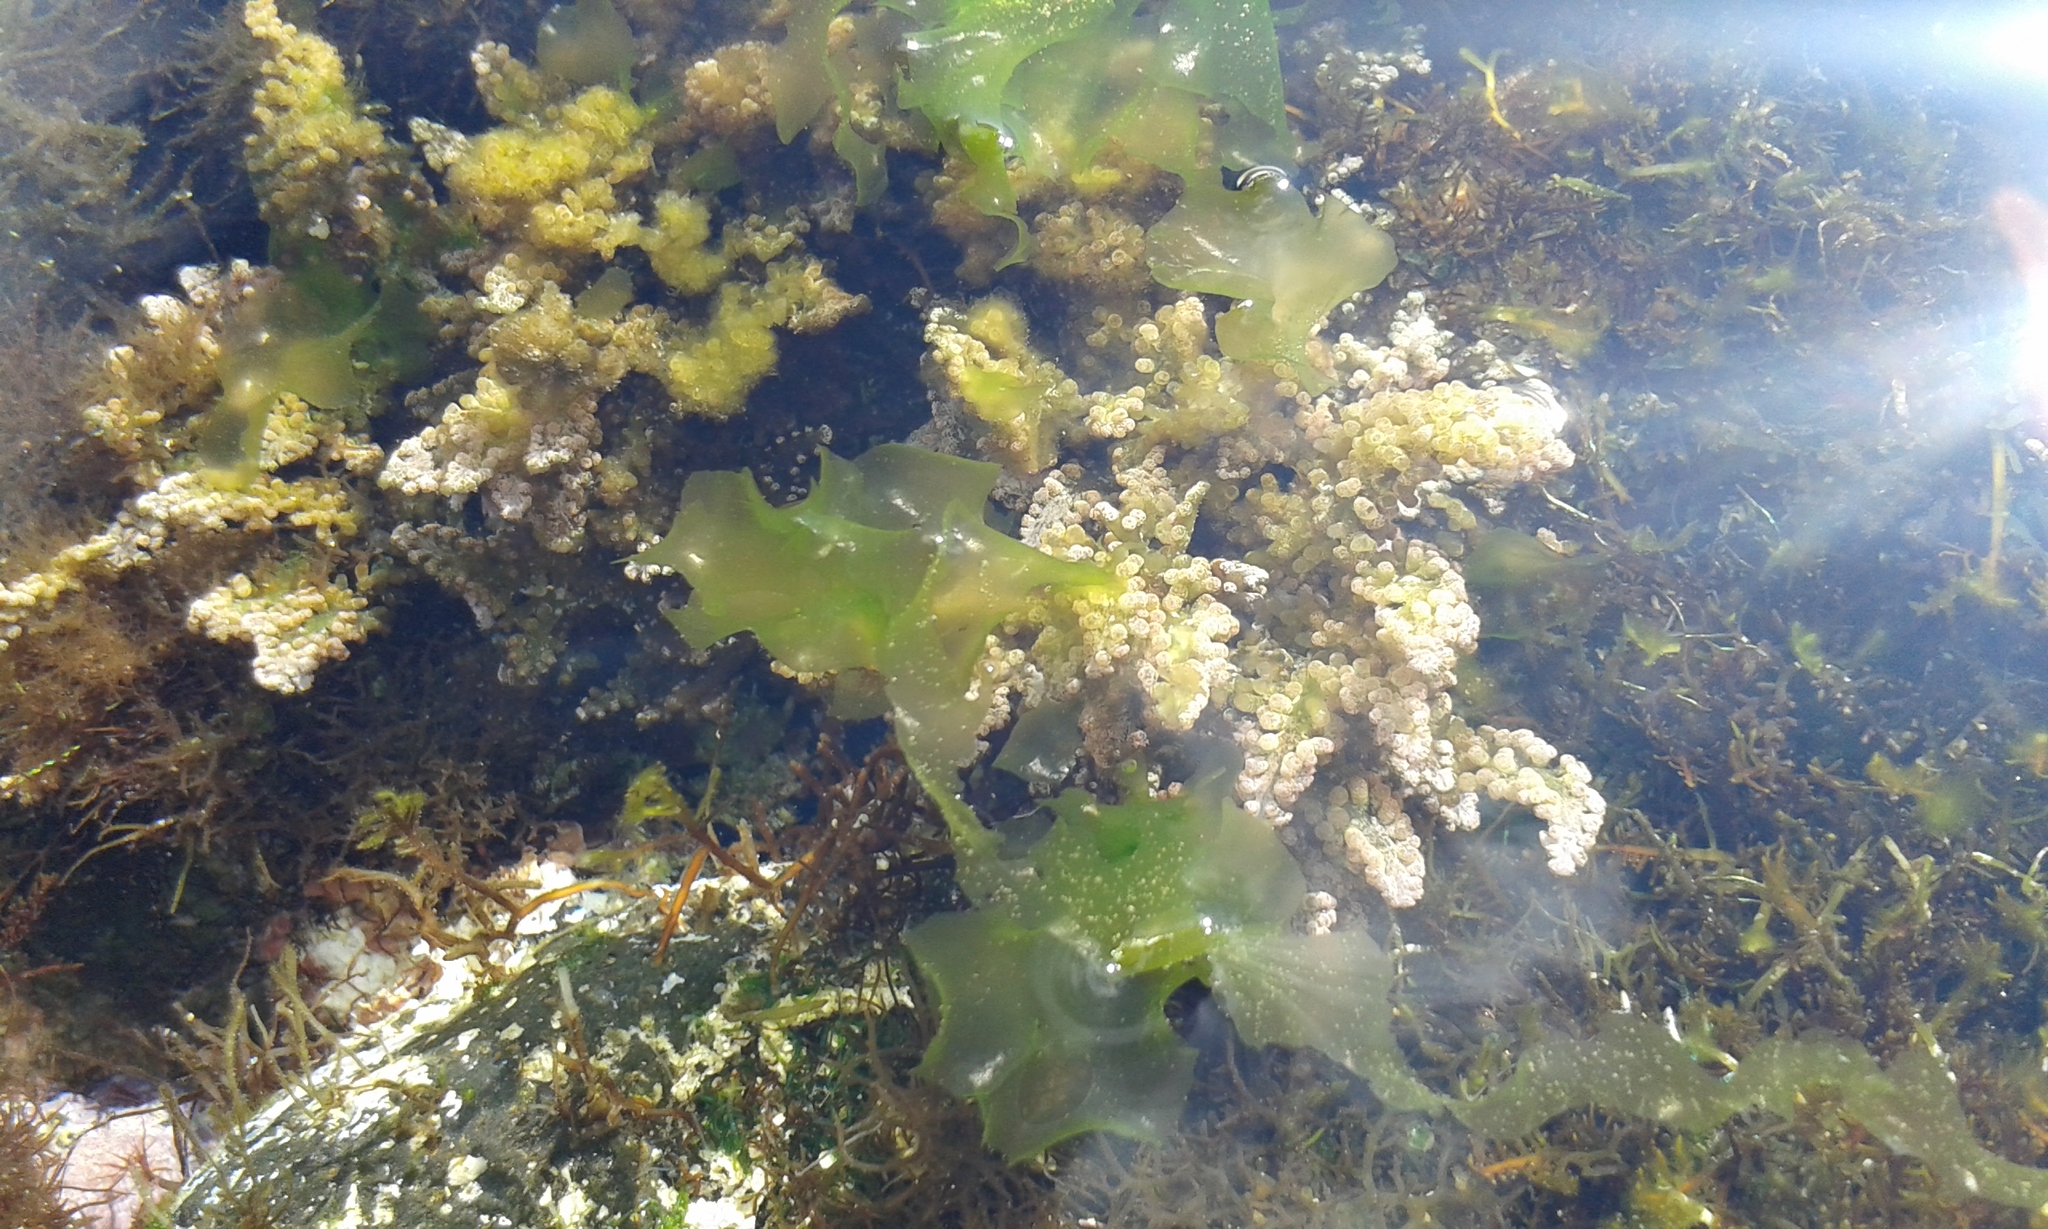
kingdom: Plantae
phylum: Chlorophyta
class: Ulvophyceae
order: Bryopsidales
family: Caulerpaceae
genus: Caulerpa
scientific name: Caulerpa racemosa
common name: Green grape algae
